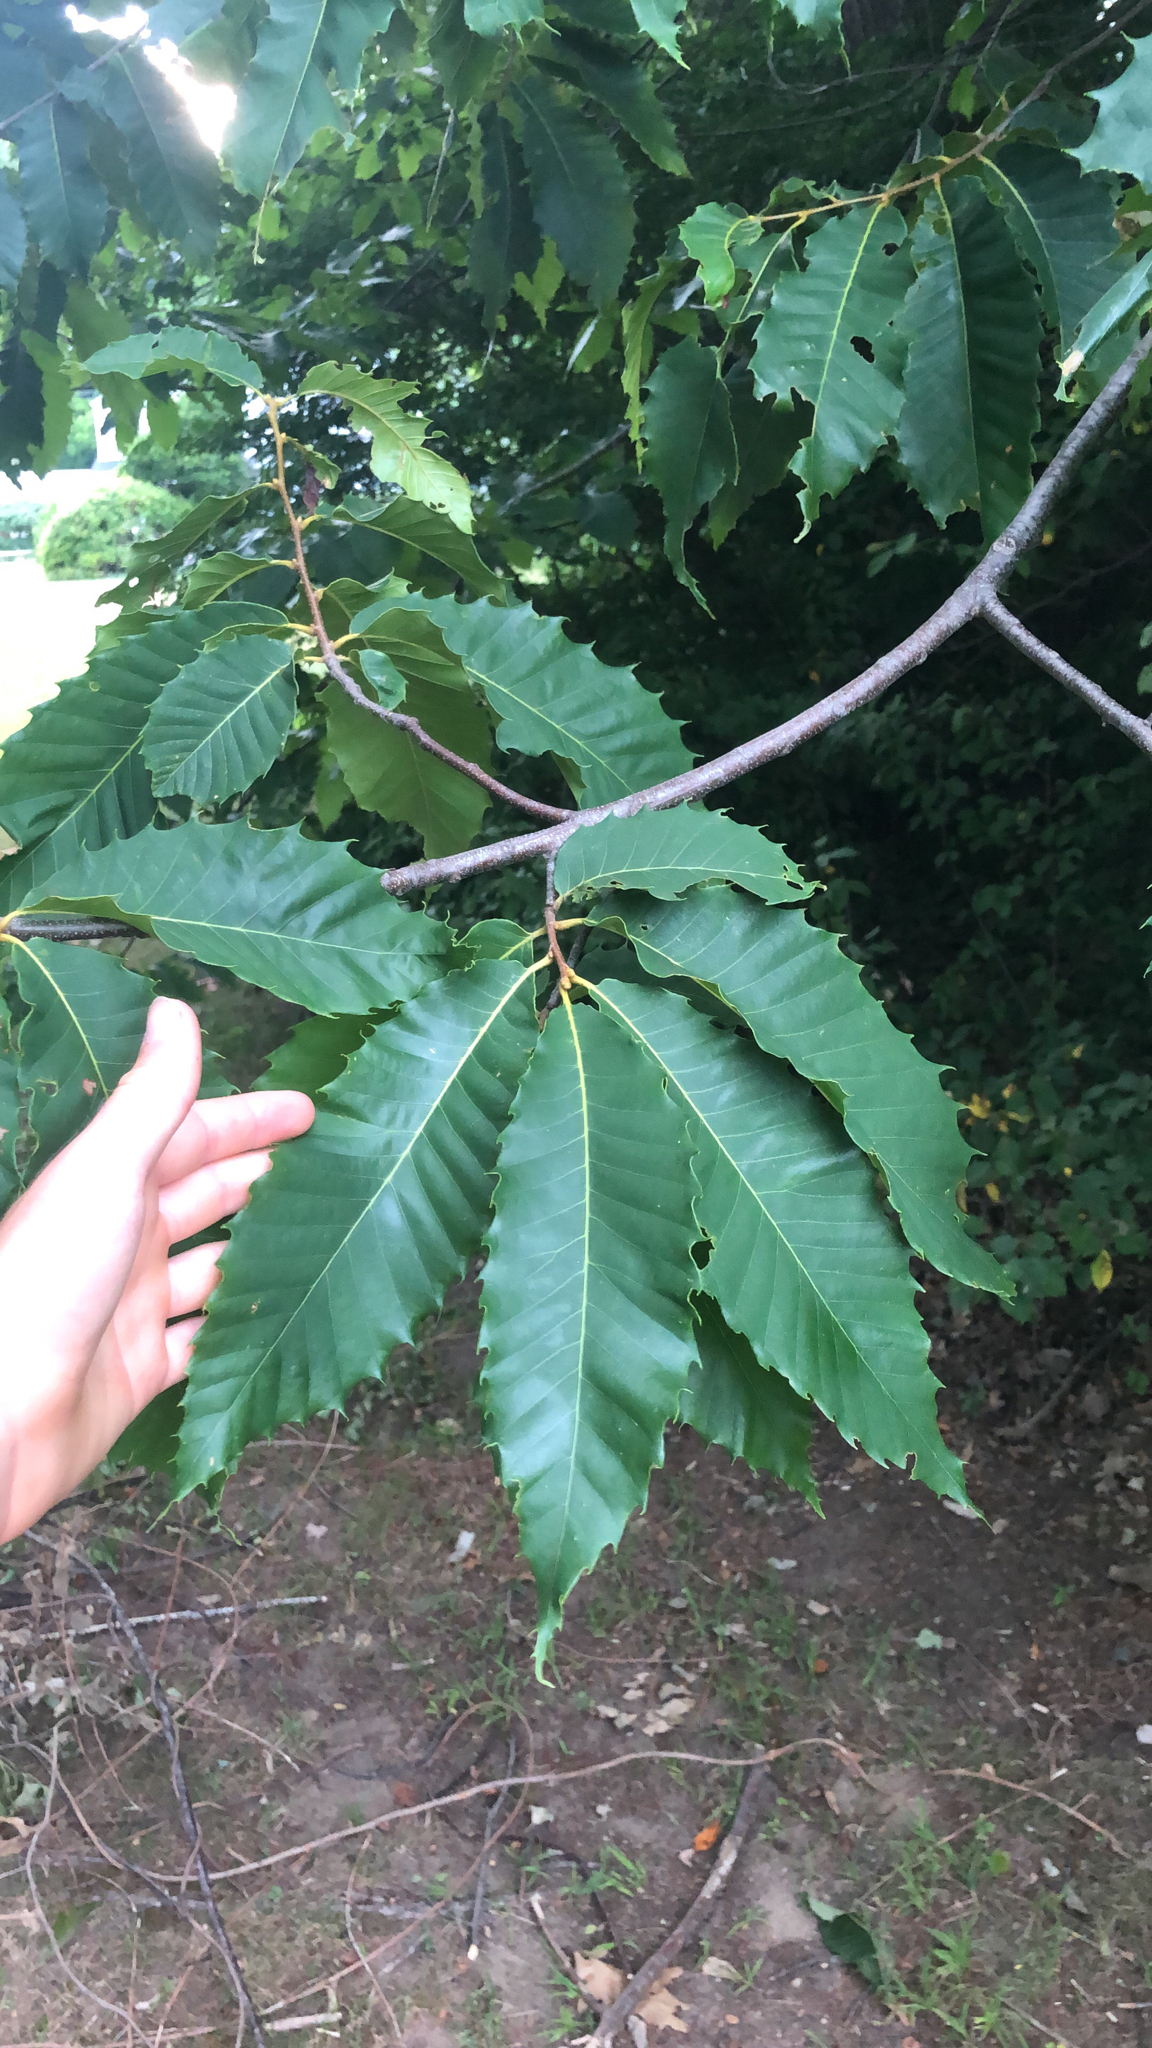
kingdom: Plantae
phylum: Tracheophyta
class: Magnoliopsida
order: Fagales
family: Fagaceae
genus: Castanea
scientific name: Castanea dentata
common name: American chestnut
